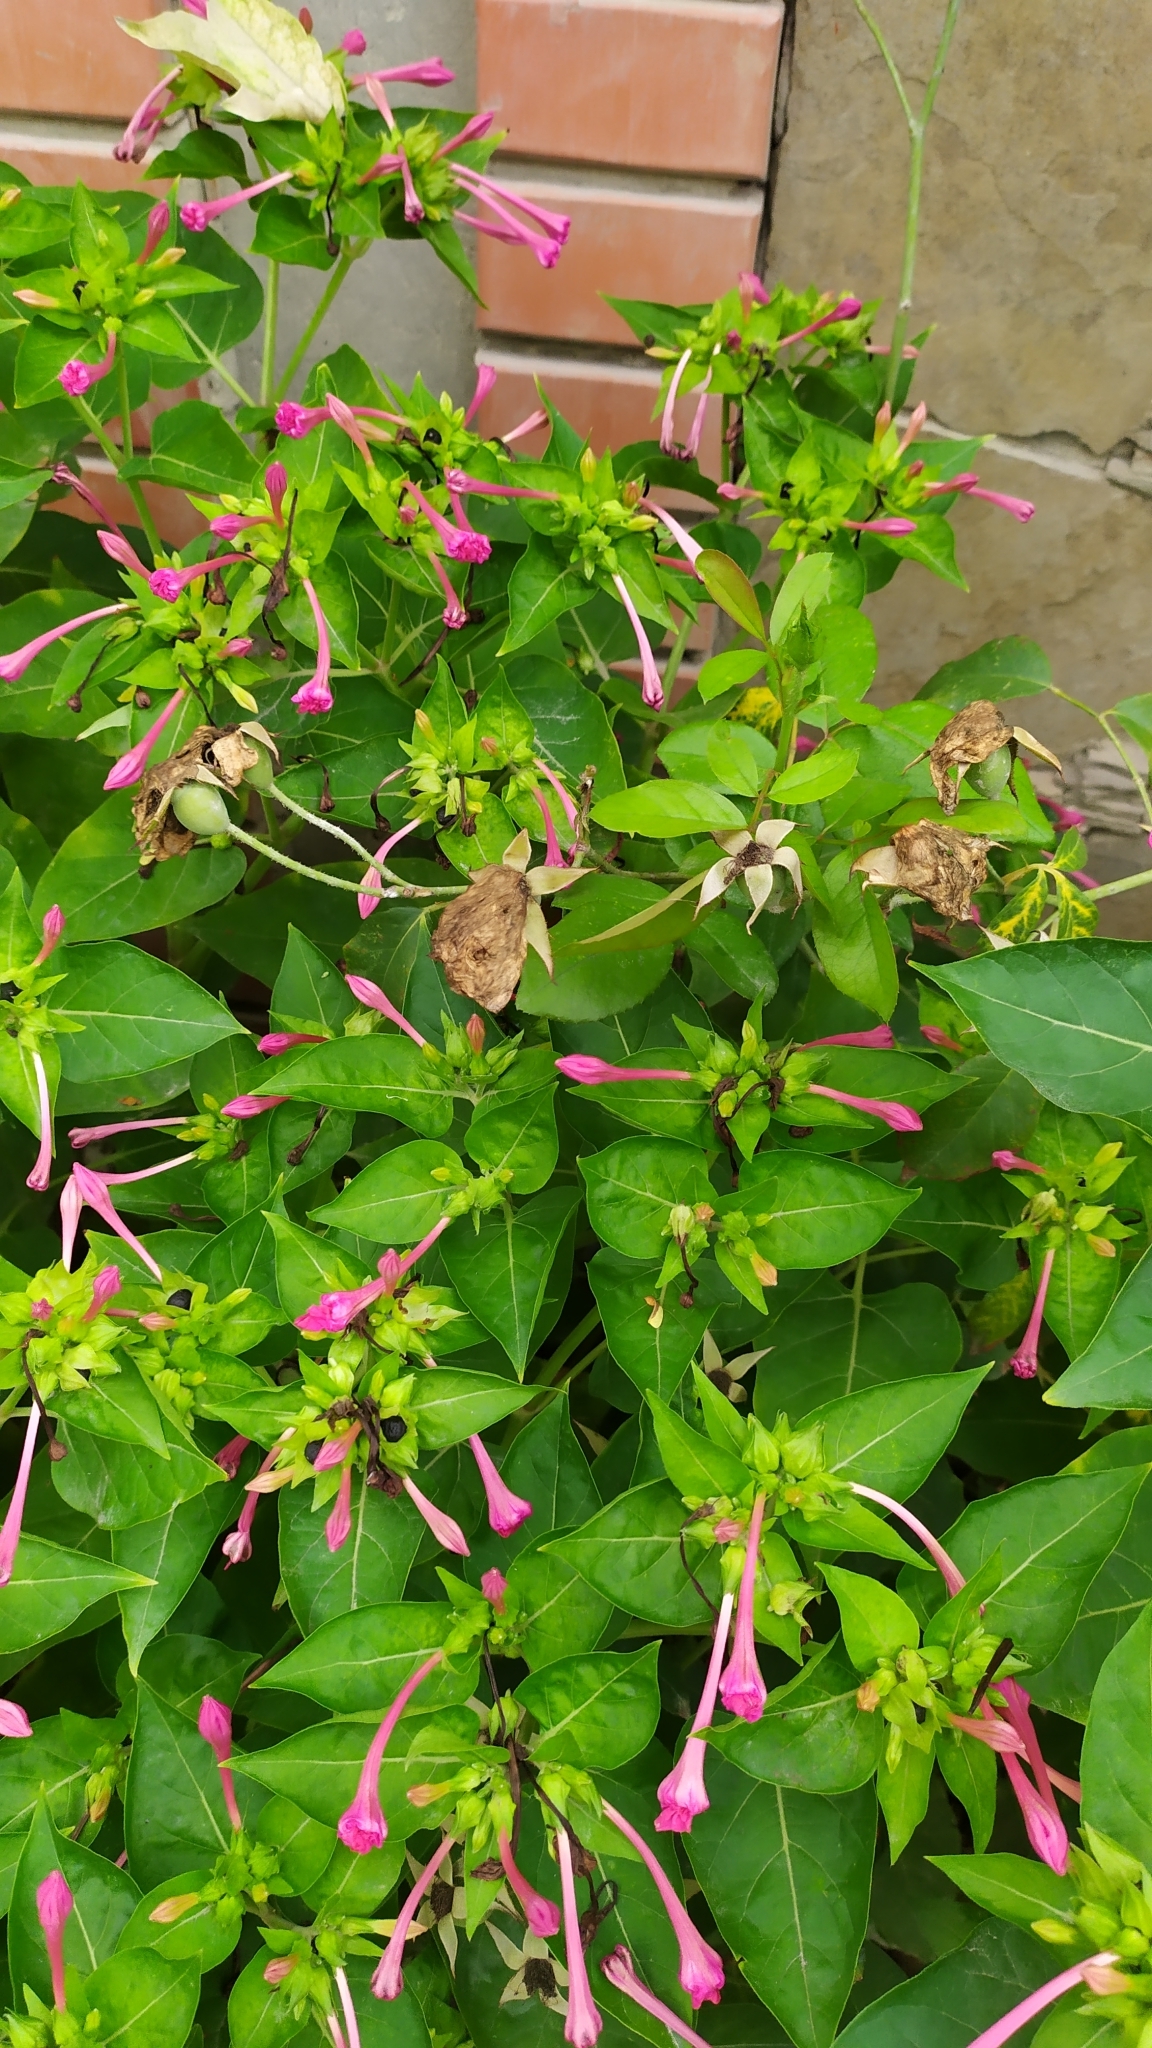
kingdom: Plantae
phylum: Tracheophyta
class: Magnoliopsida
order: Caryophyllales
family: Nyctaginaceae
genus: Mirabilis
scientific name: Mirabilis jalapa
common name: Marvel-of-peru
